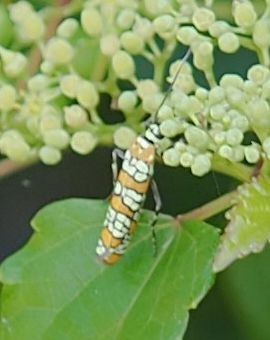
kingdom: Animalia
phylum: Arthropoda
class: Insecta
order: Lepidoptera
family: Attevidae
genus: Atteva
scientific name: Atteva punctella
